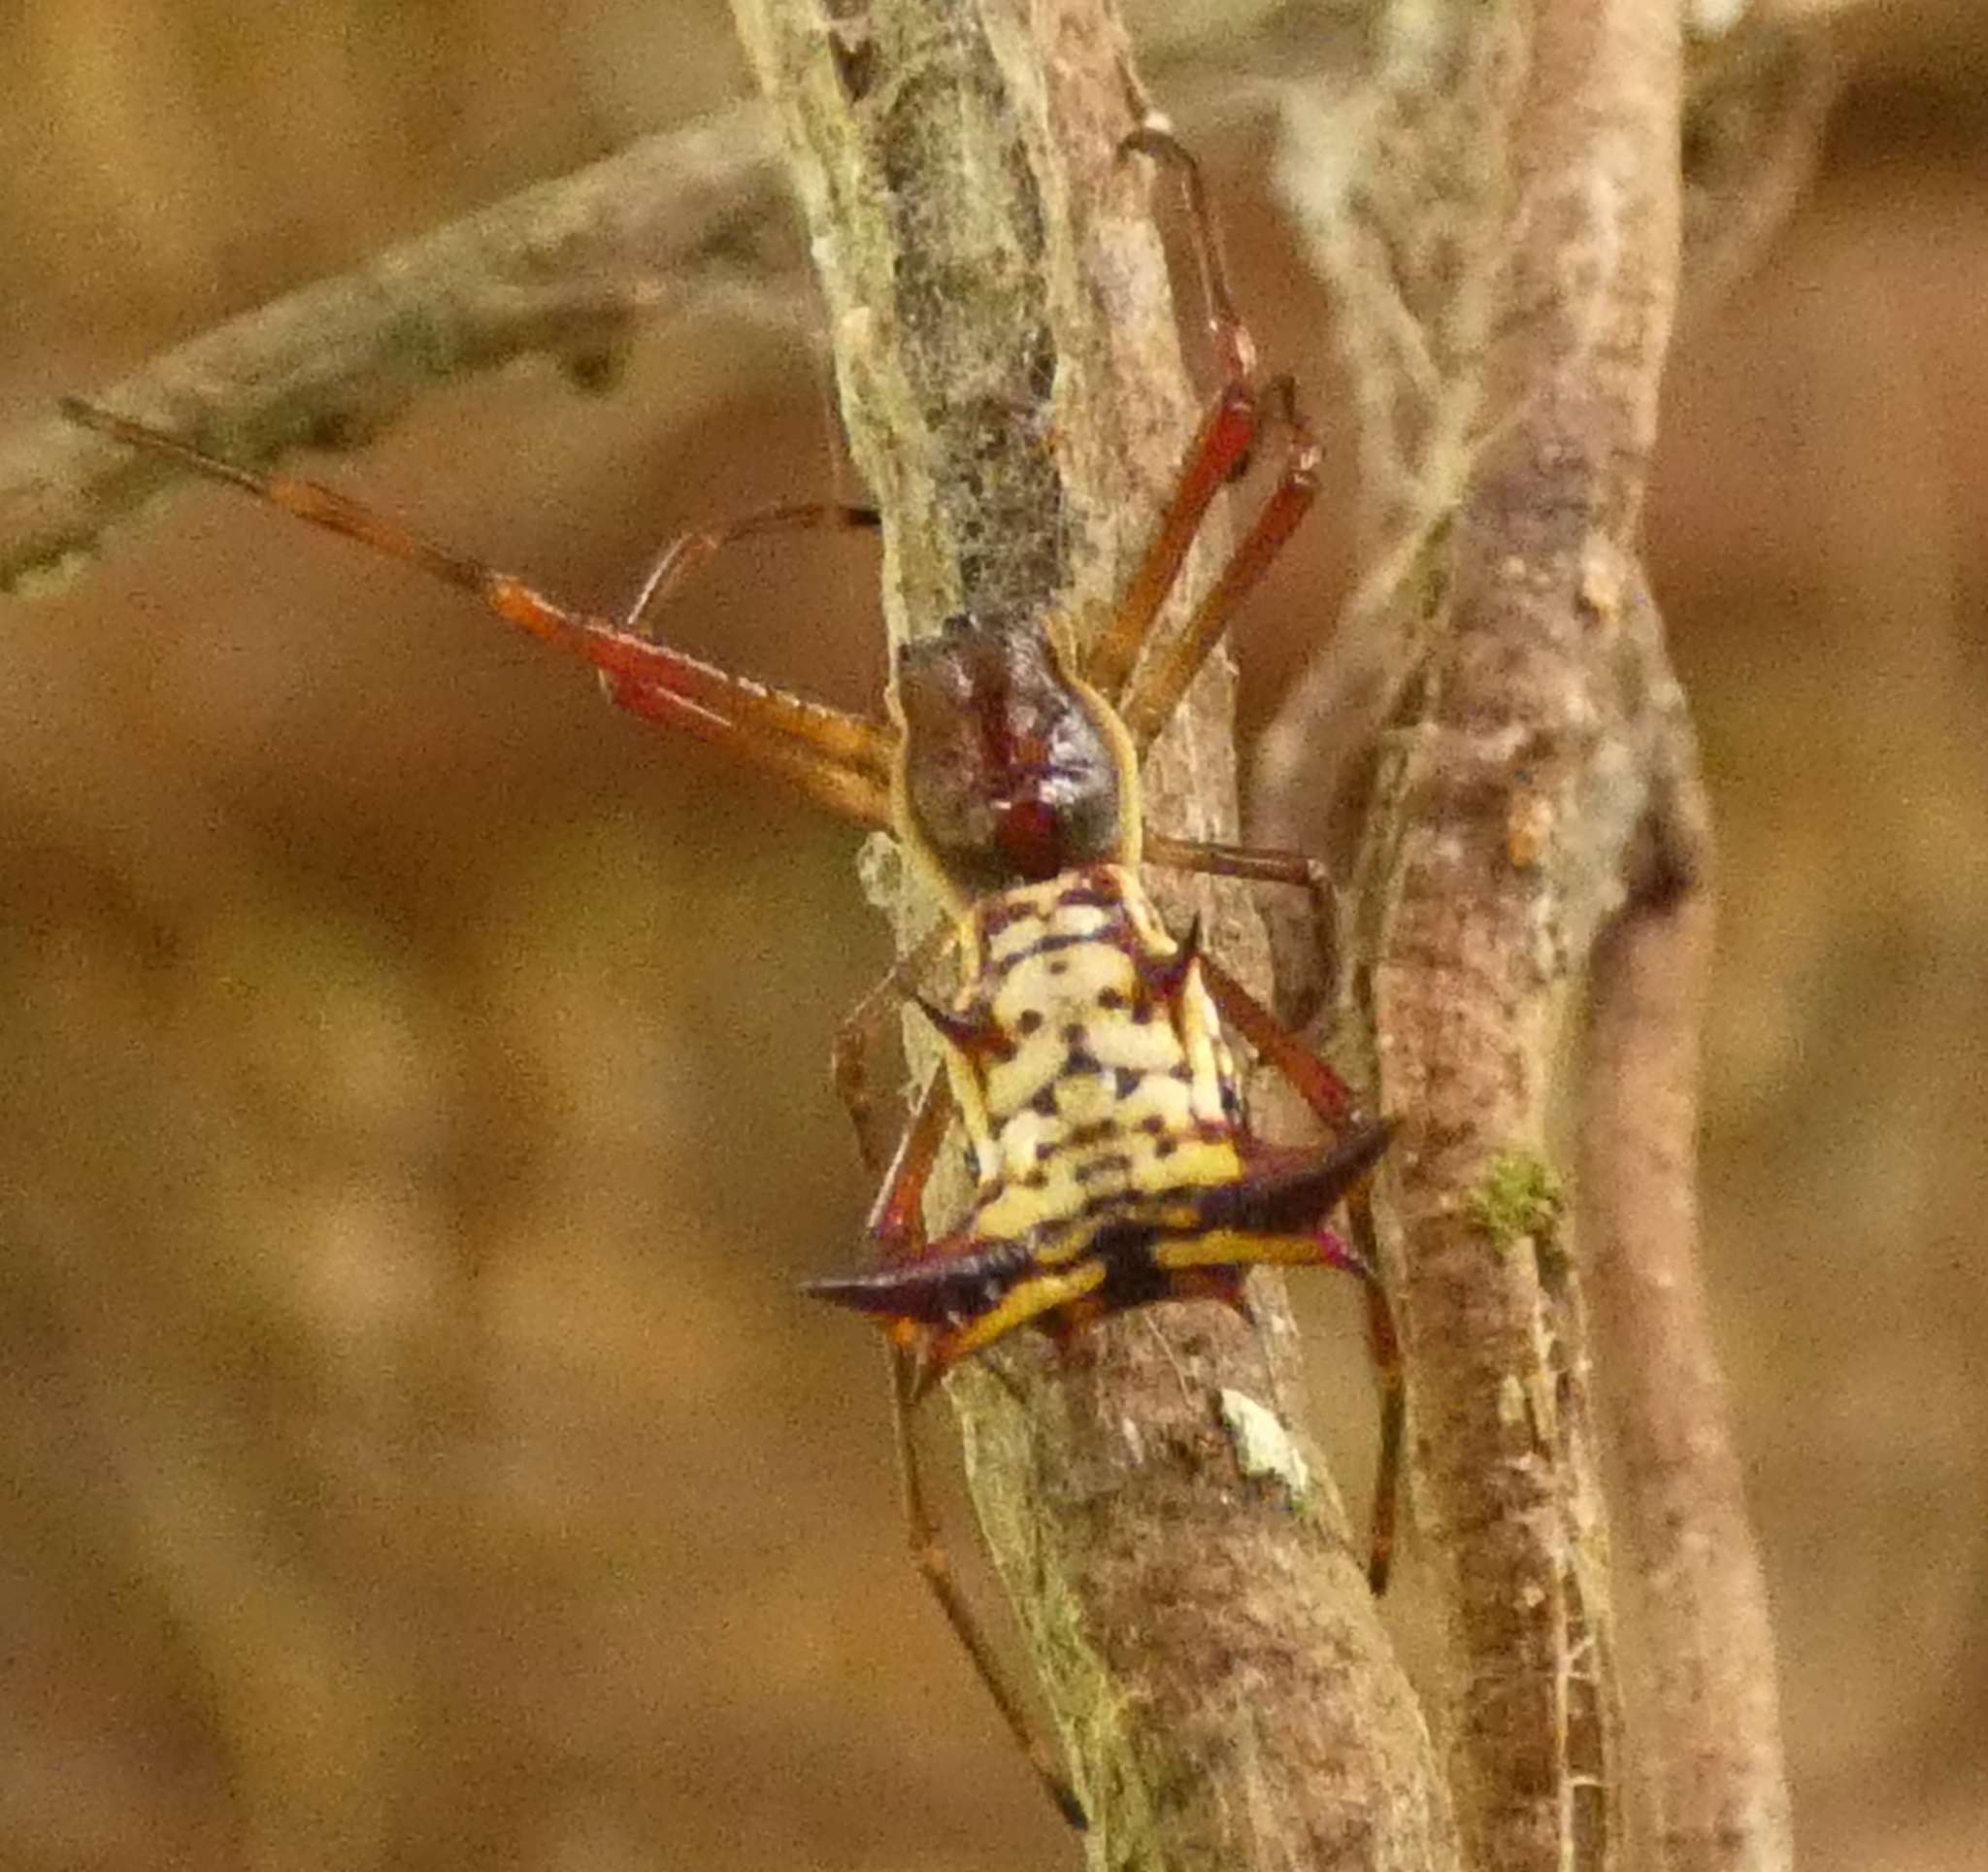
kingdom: Animalia
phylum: Arthropoda
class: Arachnida
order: Araneae
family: Araneidae
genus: Micrathena
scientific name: Micrathena fissispina
